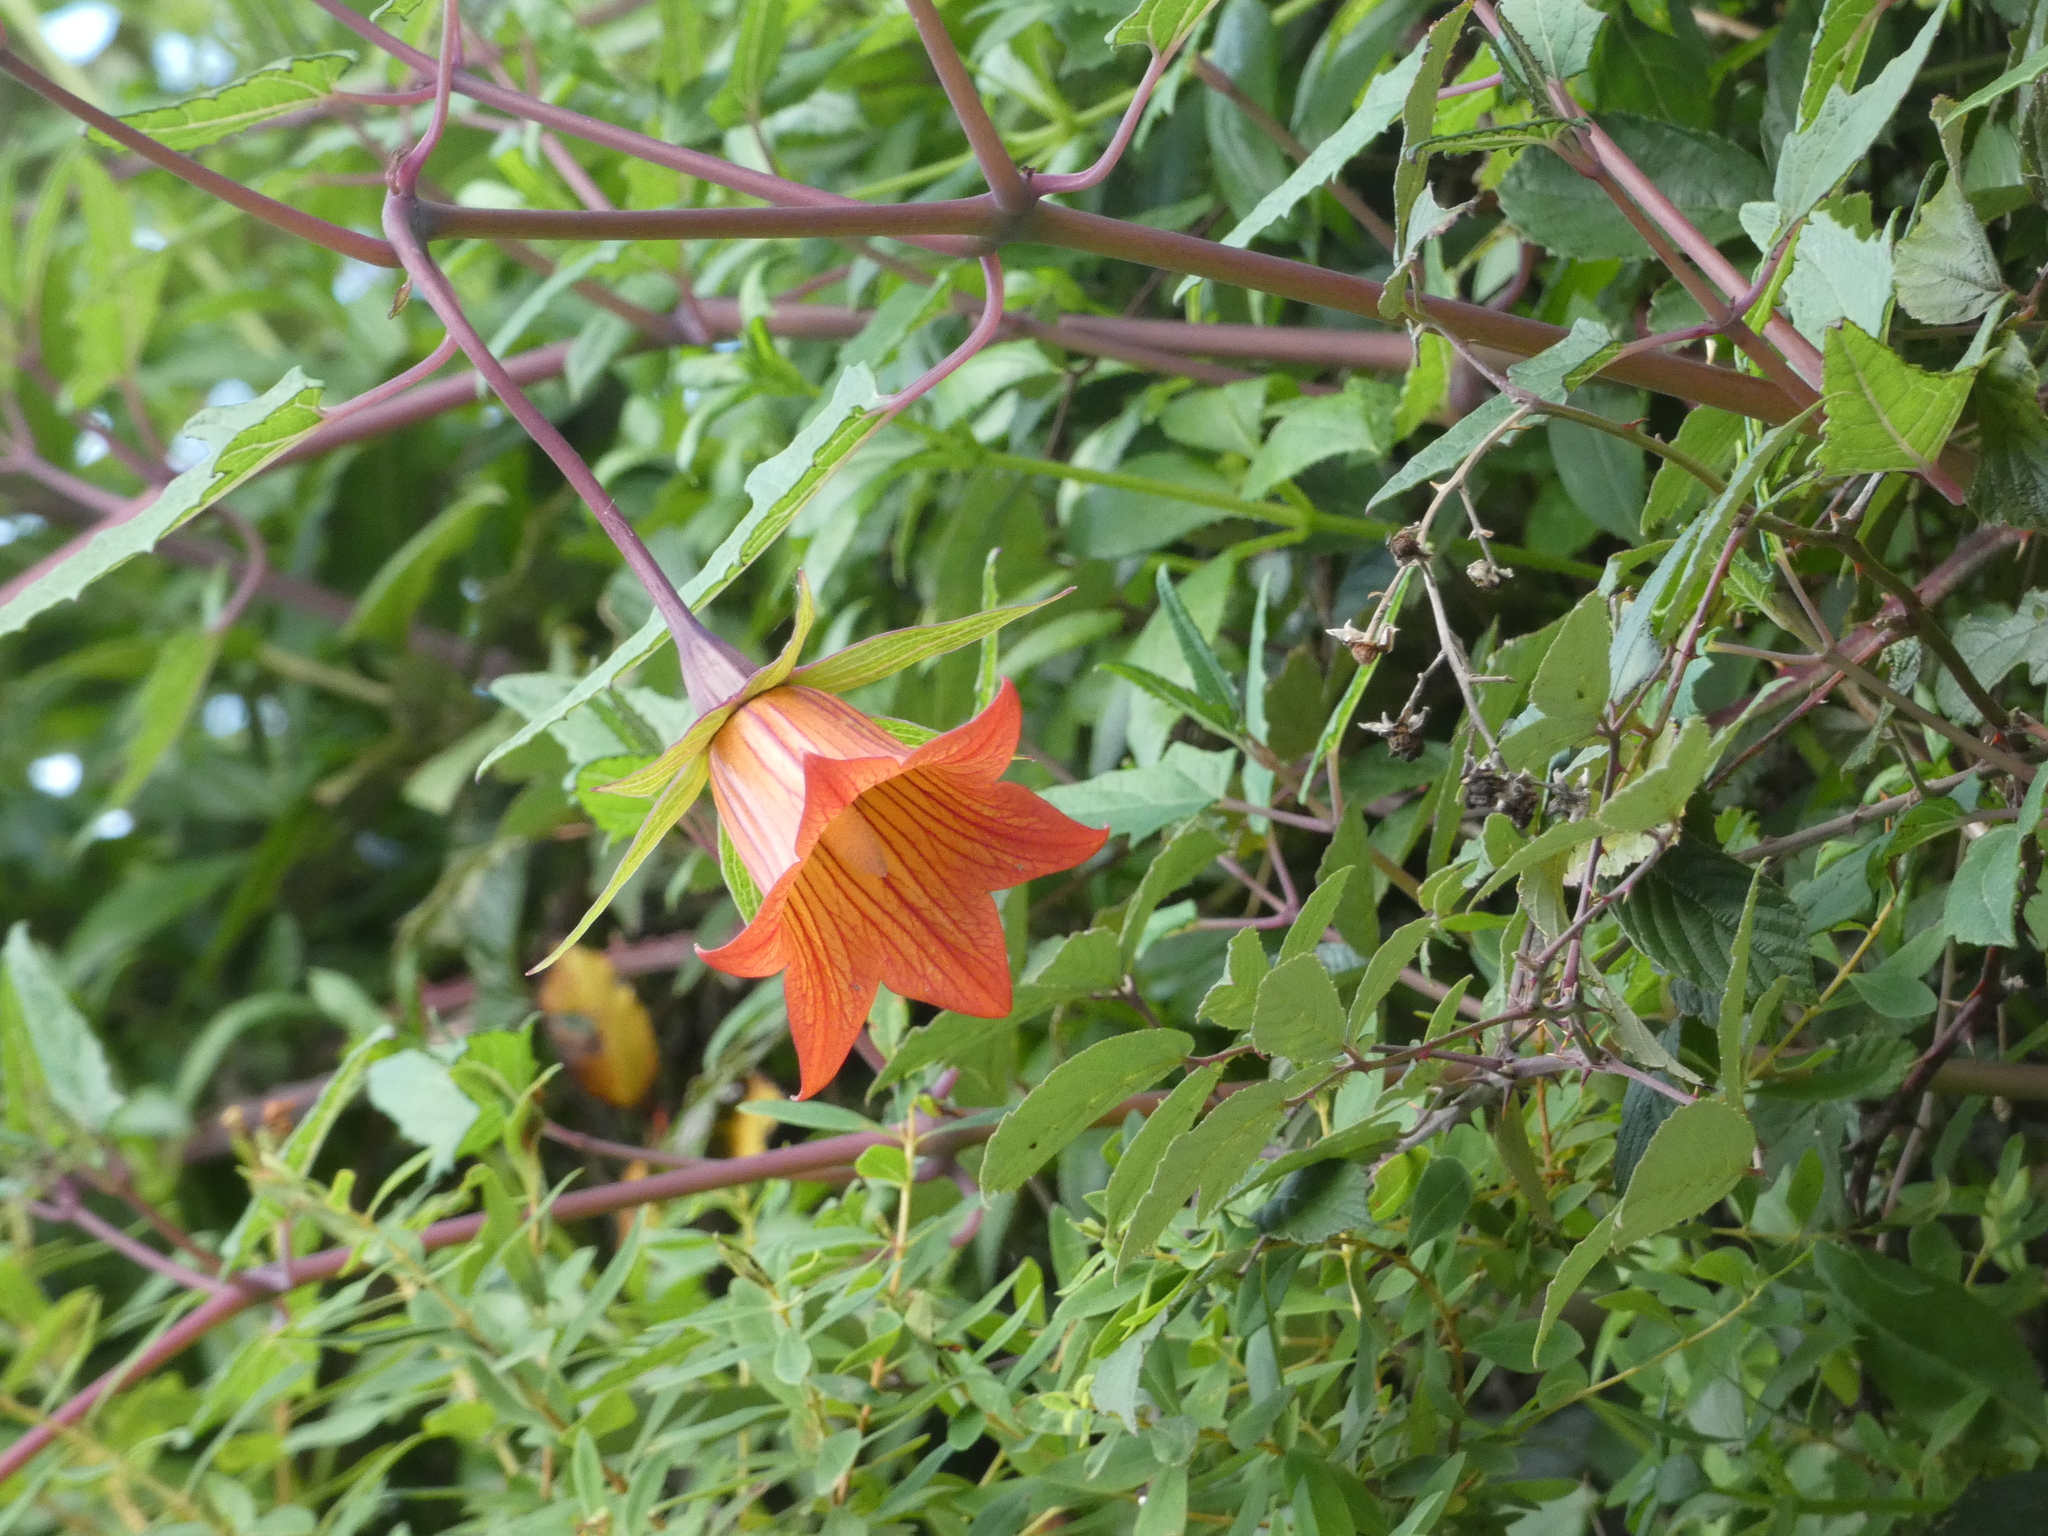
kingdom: Plantae
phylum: Tracheophyta
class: Magnoliopsida
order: Asterales
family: Campanulaceae
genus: Canarina
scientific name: Canarina canariensis
